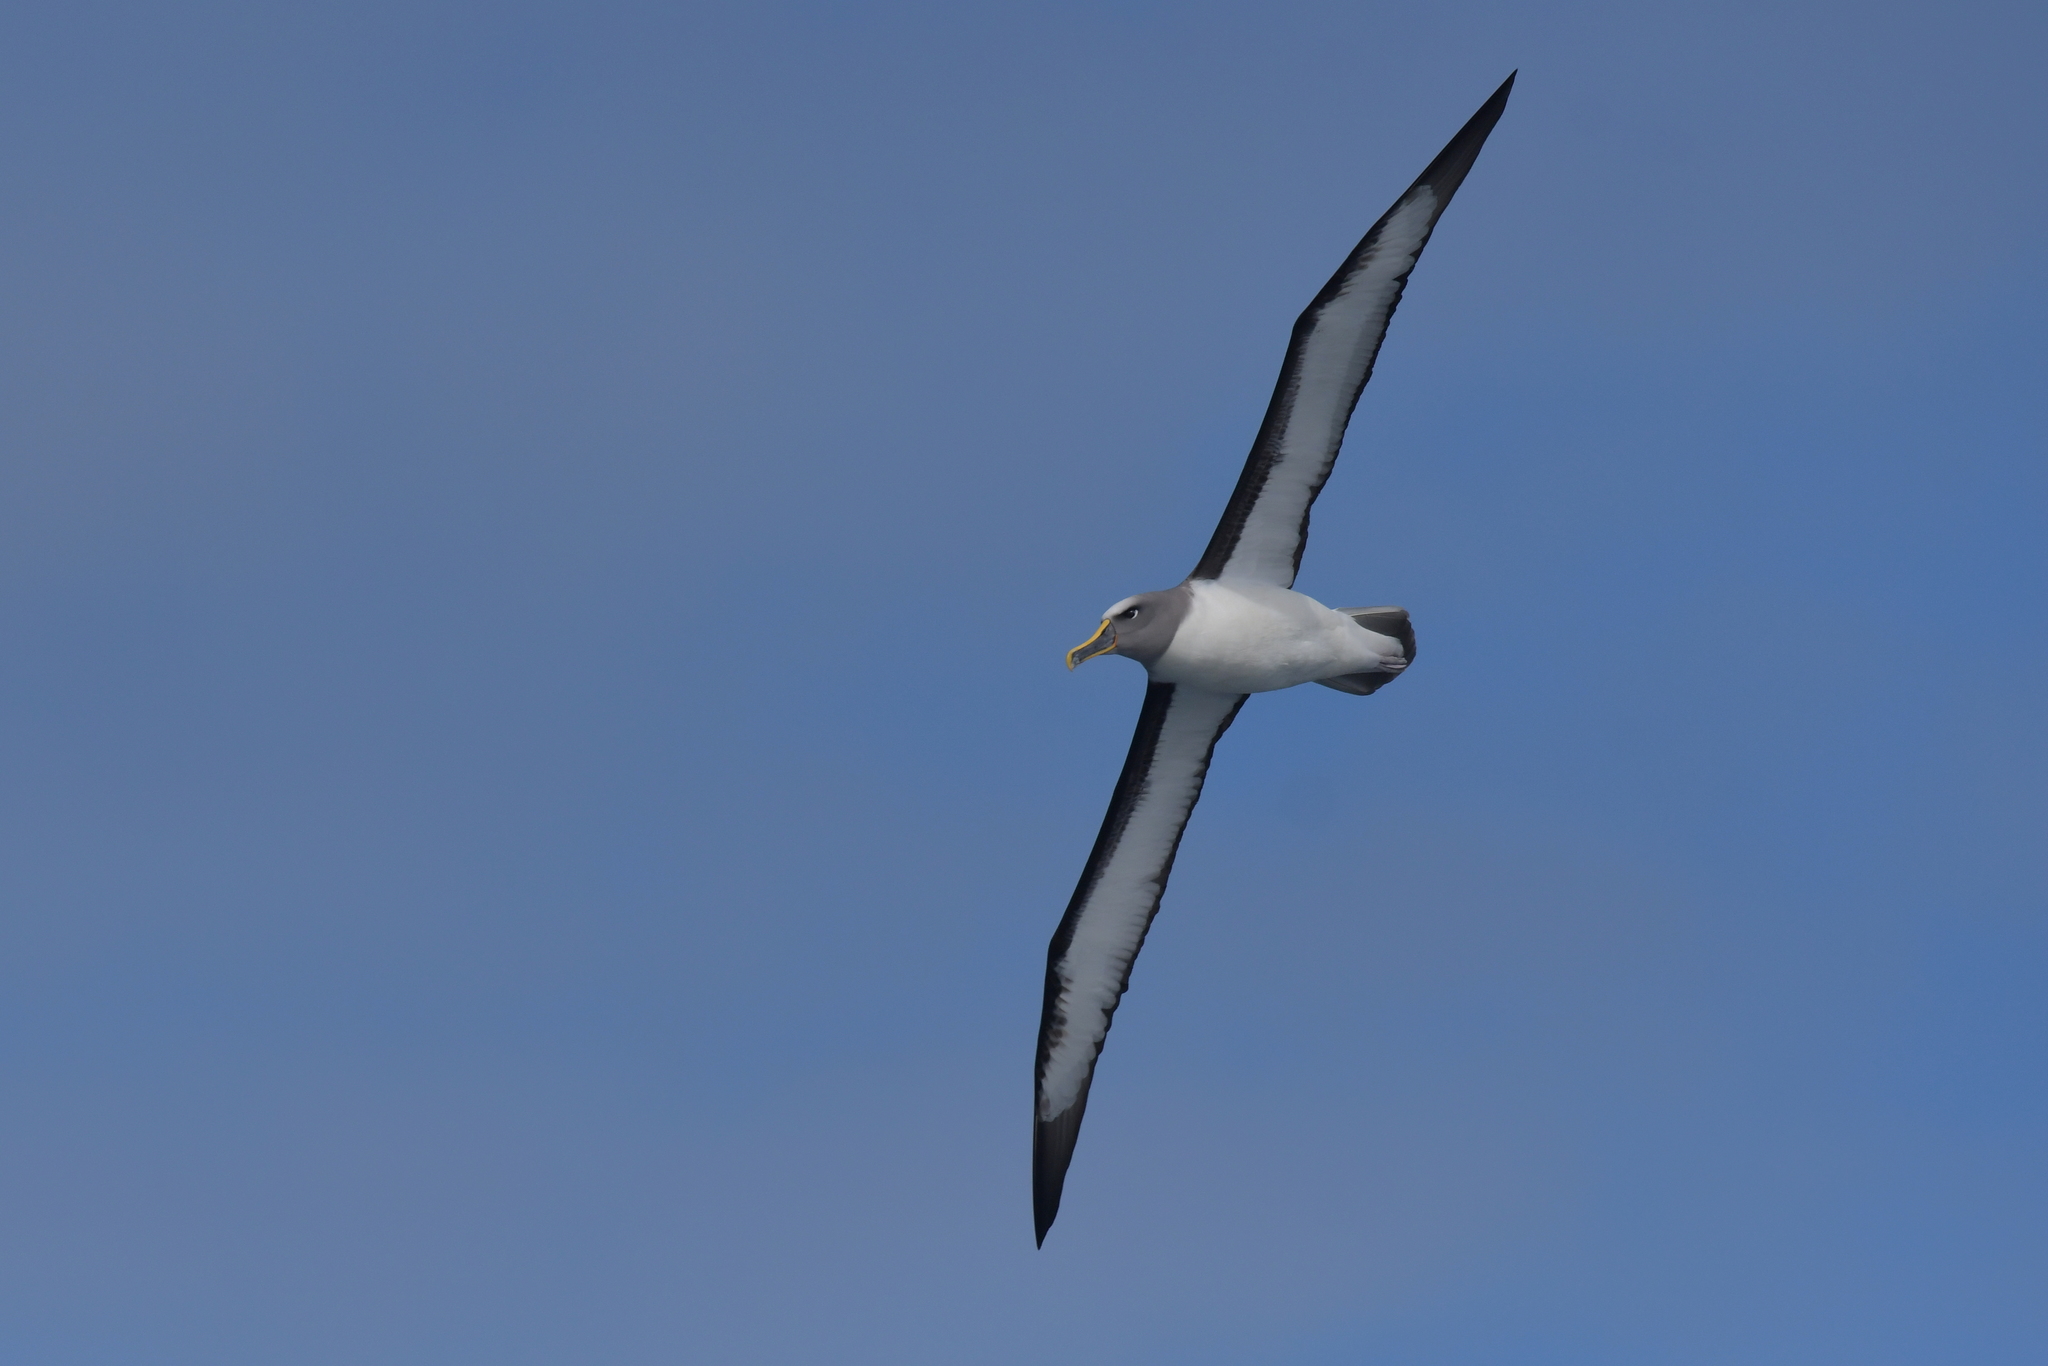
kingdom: Animalia
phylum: Chordata
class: Aves
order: Procellariiformes
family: Diomedeidae
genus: Thalassarche
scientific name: Thalassarche bulleri
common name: Buller's albatross
